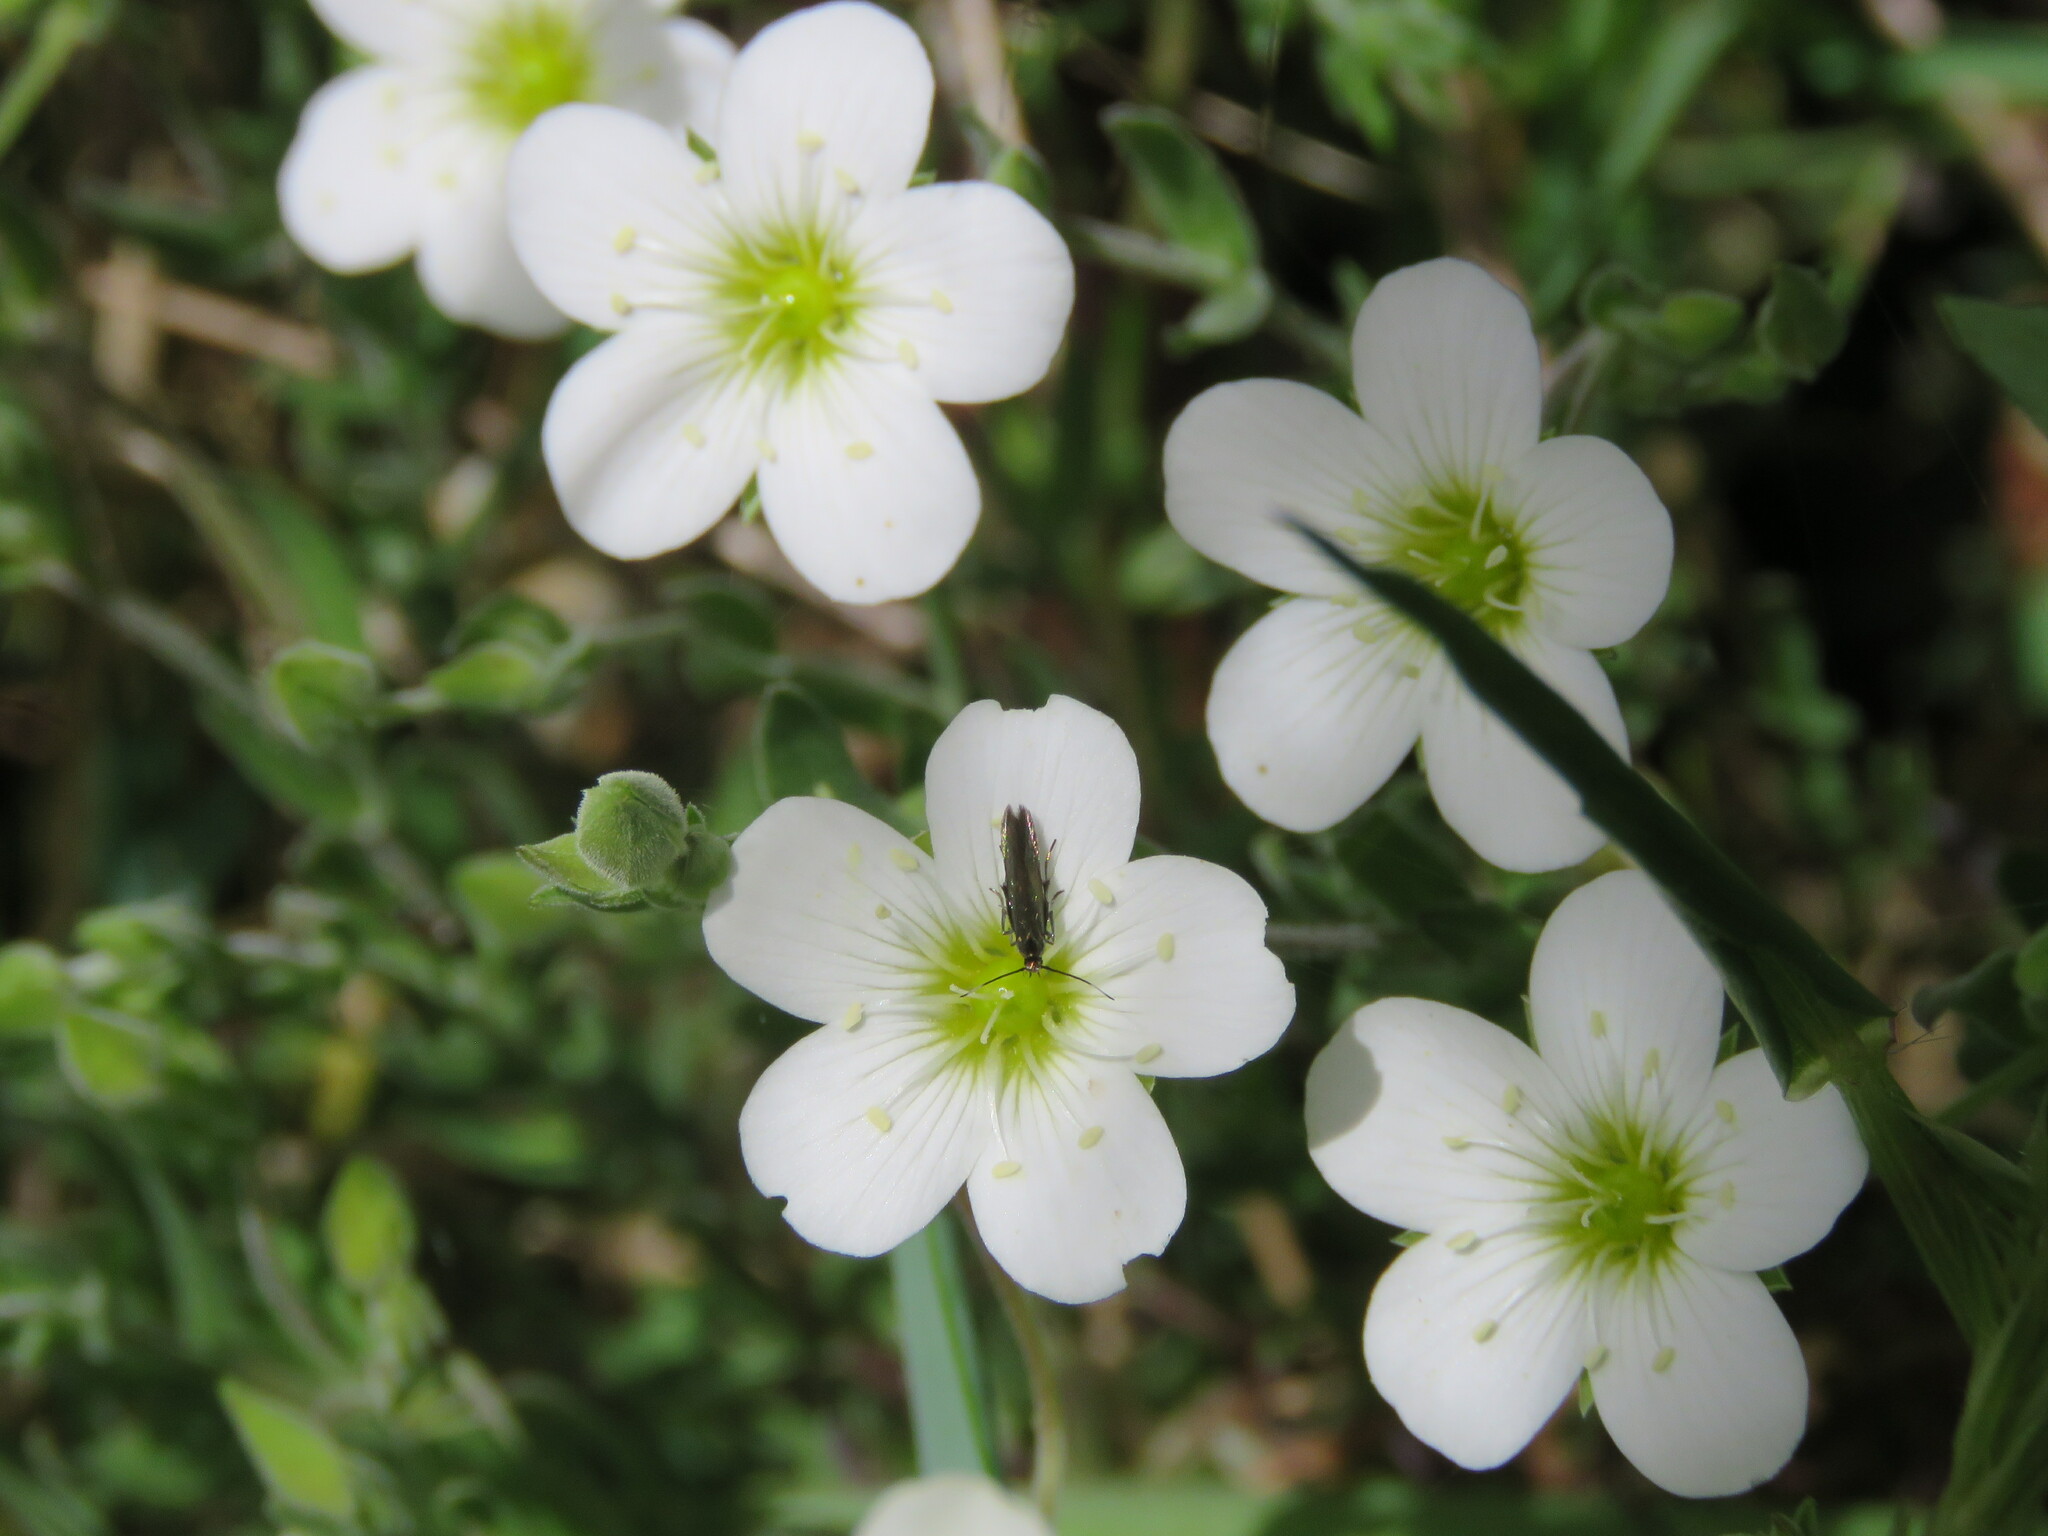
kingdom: Plantae
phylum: Tracheophyta
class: Magnoliopsida
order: Caryophyllales
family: Caryophyllaceae
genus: Arenaria
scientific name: Arenaria montana
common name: Mountain sandwort
